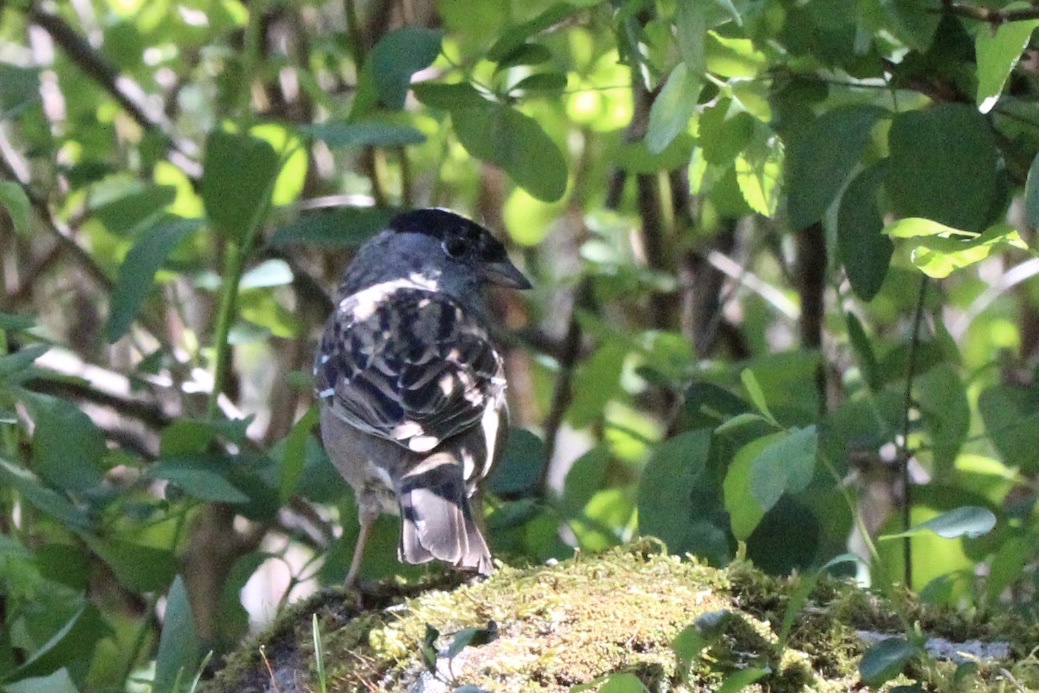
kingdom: Animalia
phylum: Chordata
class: Aves
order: Passeriformes
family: Passerellidae
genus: Zonotrichia
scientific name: Zonotrichia atricapilla
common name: Golden-crowned sparrow
